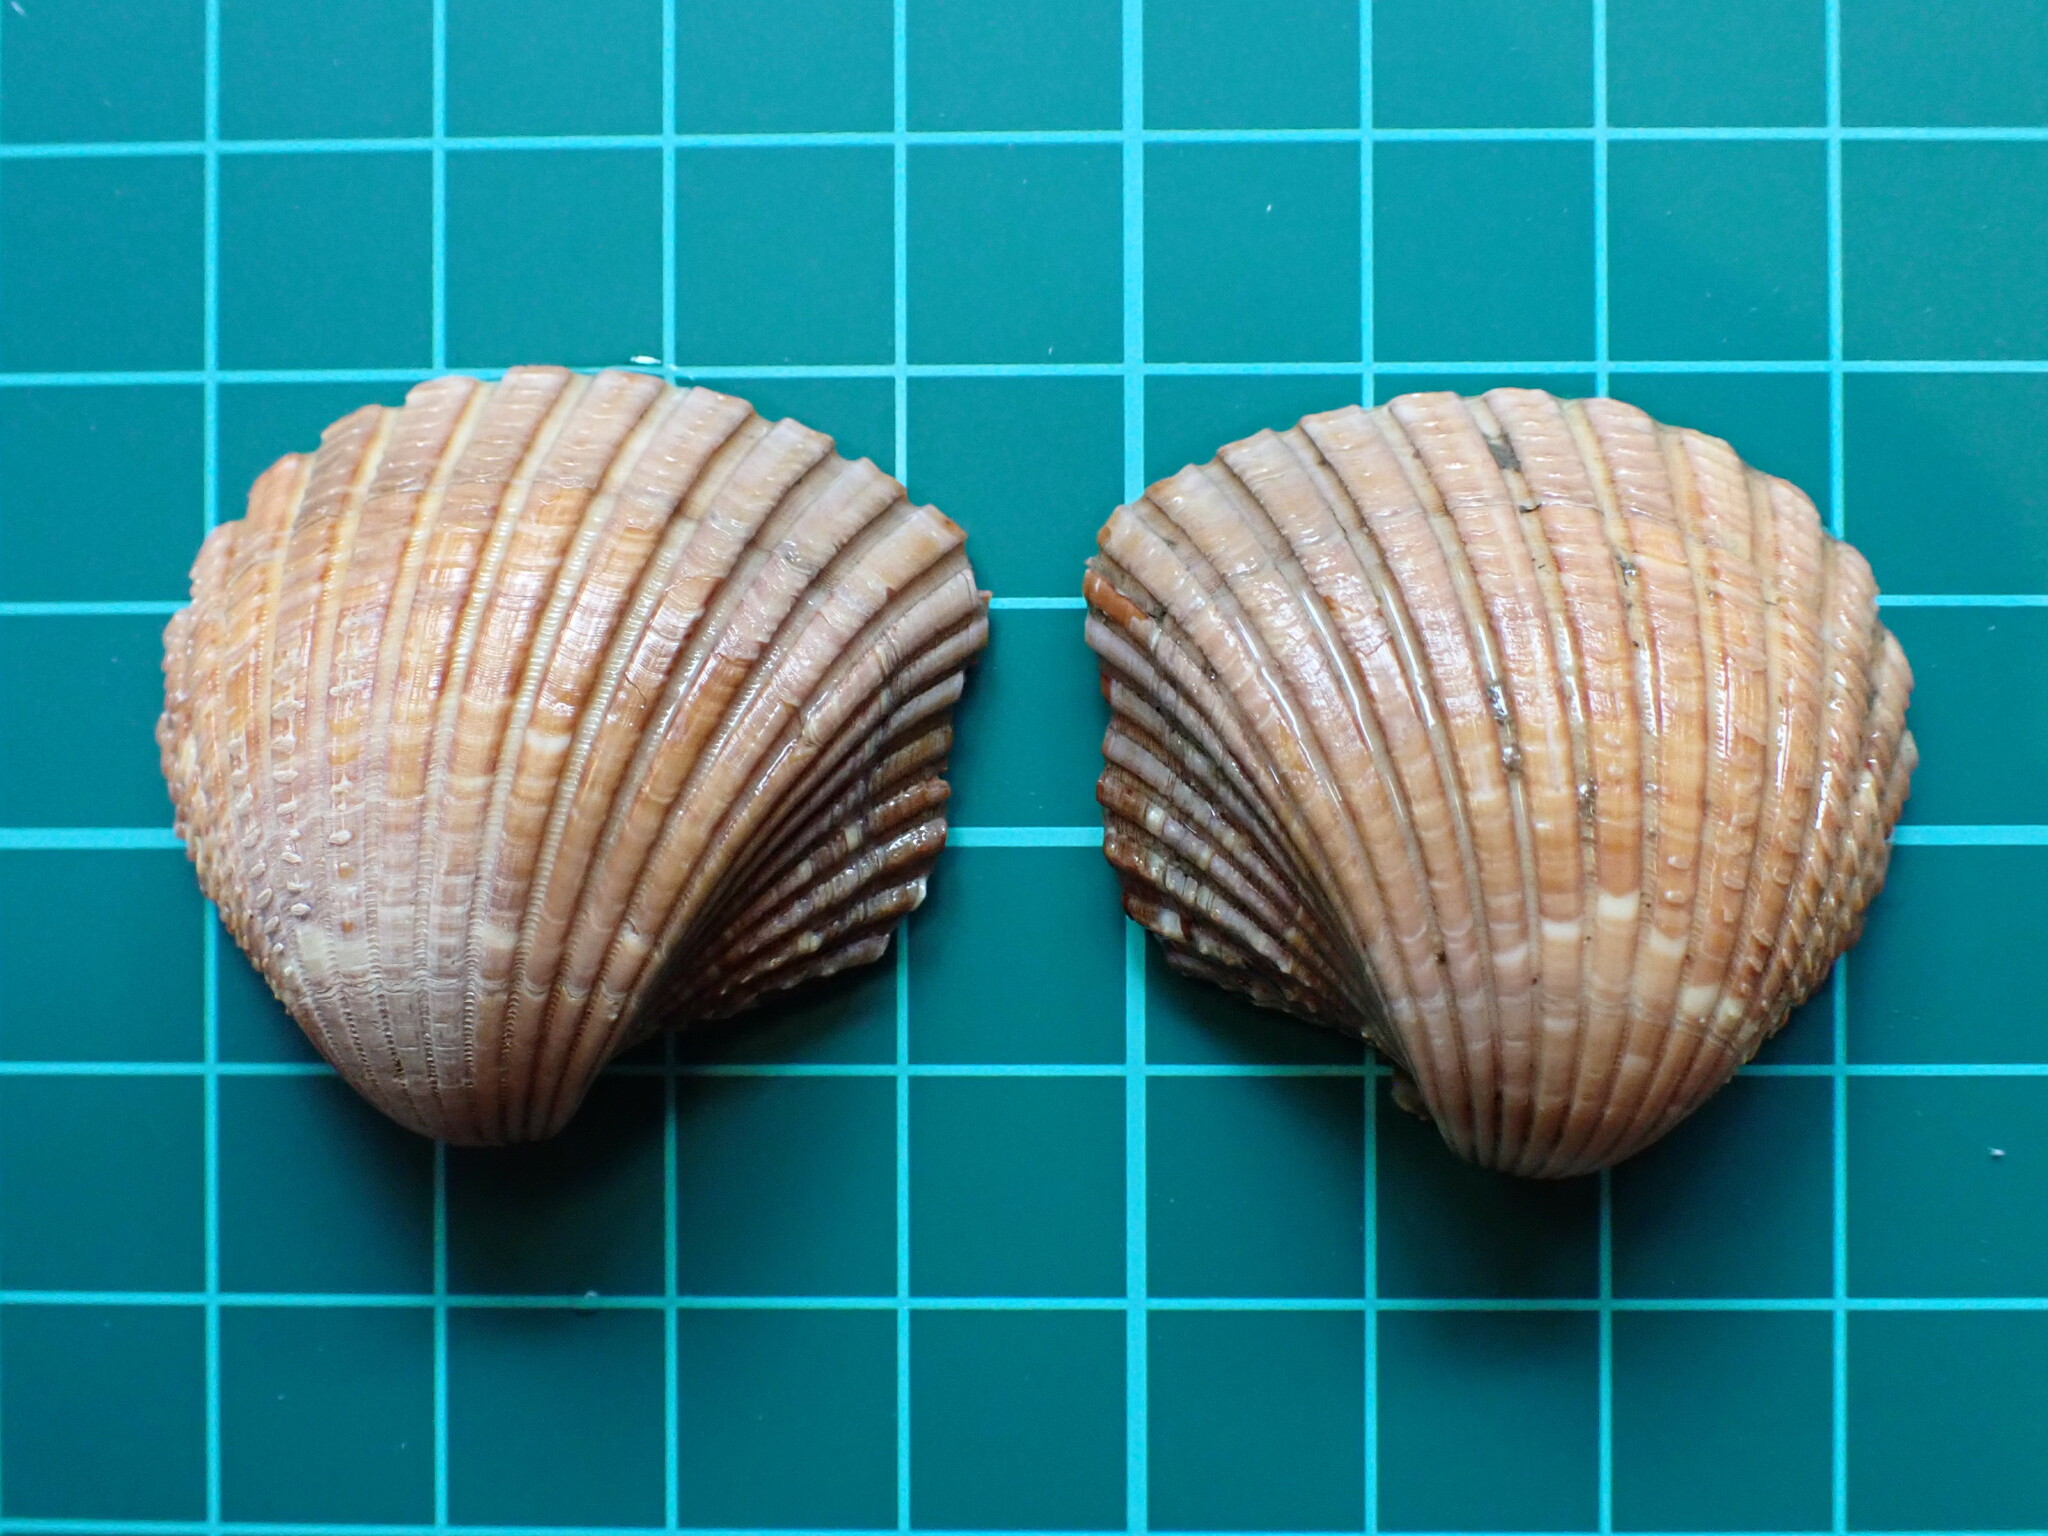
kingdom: Animalia
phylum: Mollusca
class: Bivalvia
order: Cardiida
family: Cardiidae
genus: Americardia
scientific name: Americardia biangulata
